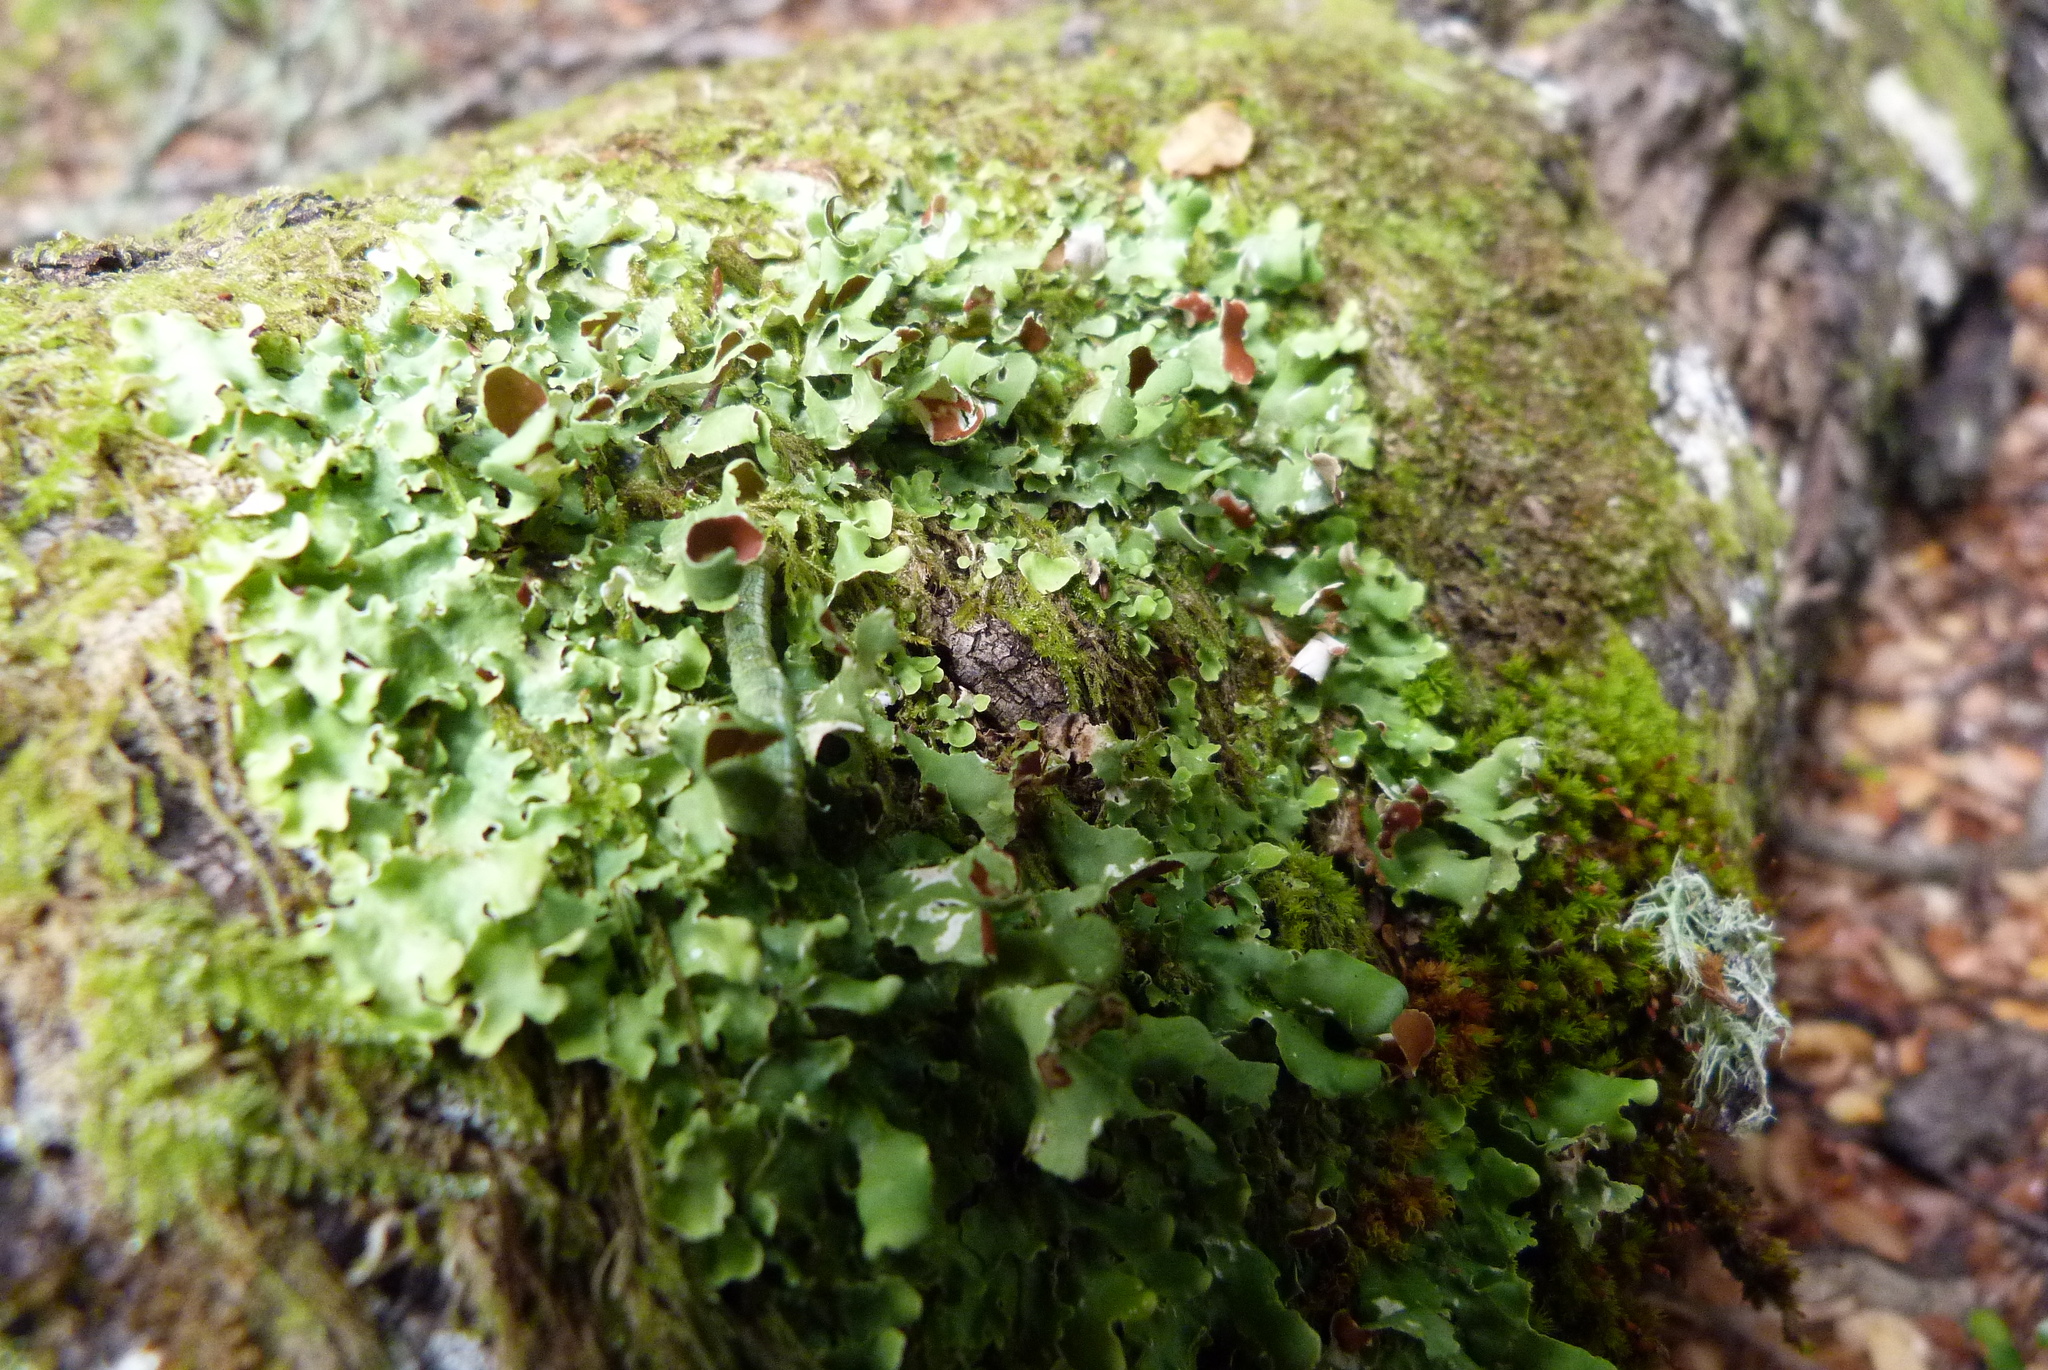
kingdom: Fungi
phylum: Ascomycota
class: Lecanoromycetes
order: Peltigerales
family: Nephromataceae
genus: Nephroma
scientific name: Nephroma australe
